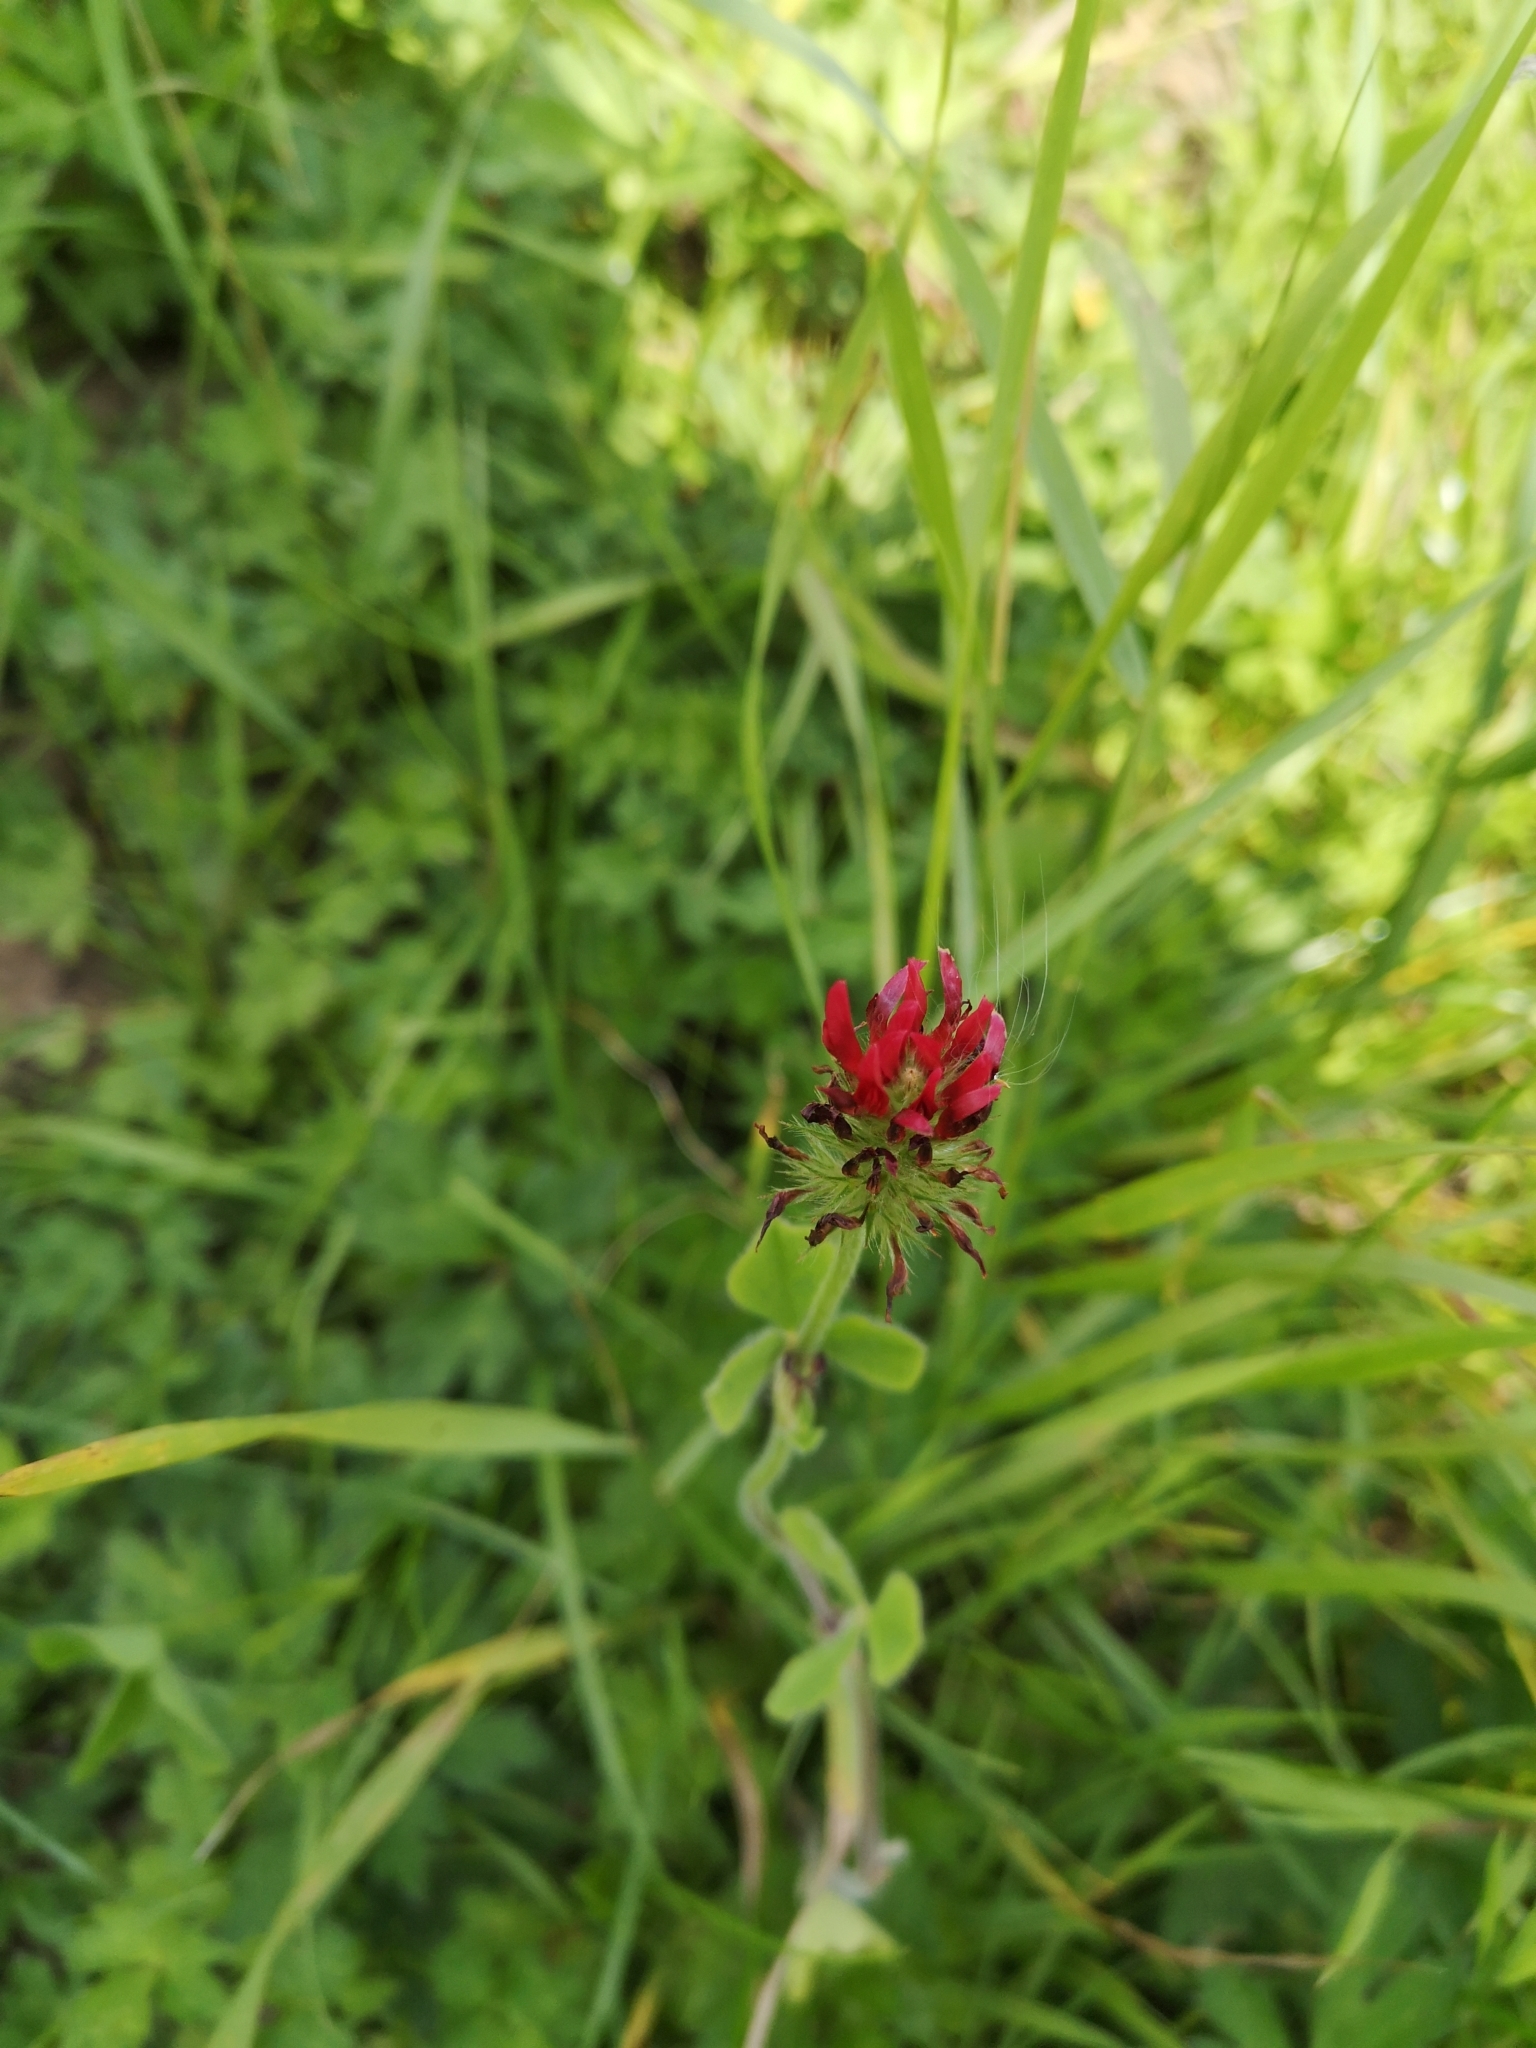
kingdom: Plantae
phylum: Tracheophyta
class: Magnoliopsida
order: Fabales
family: Fabaceae
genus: Trifolium
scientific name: Trifolium incarnatum
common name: Crimson clover
